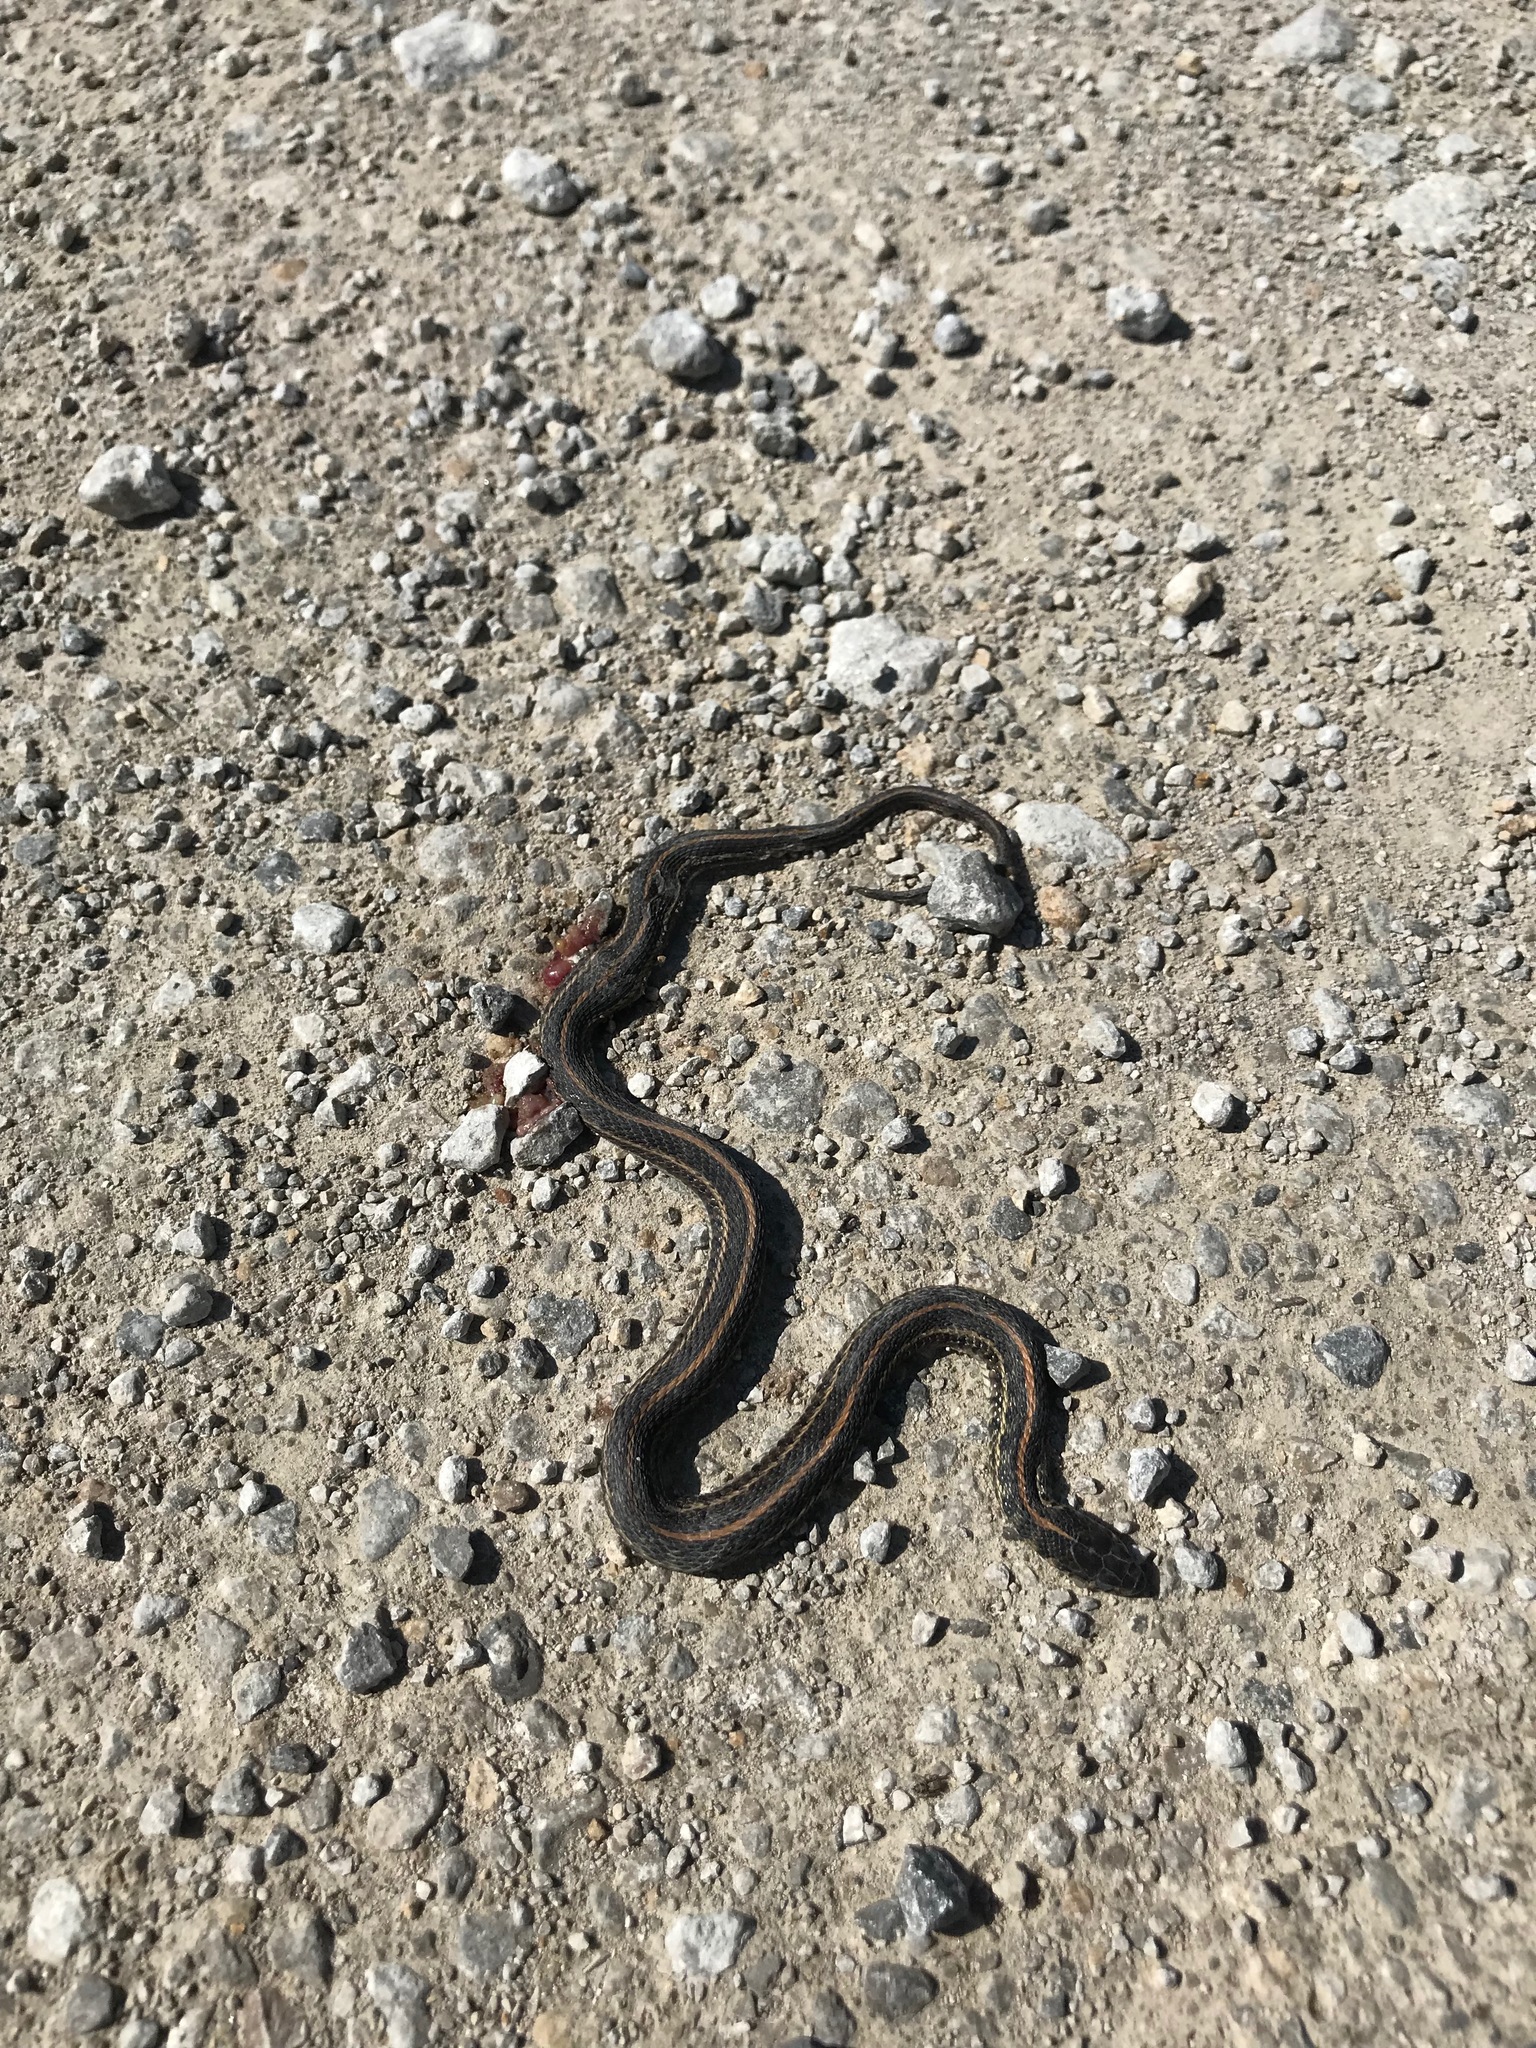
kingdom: Animalia
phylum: Chordata
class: Squamata
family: Colubridae
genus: Thamnophis
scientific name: Thamnophis radix
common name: Plains garter snake
